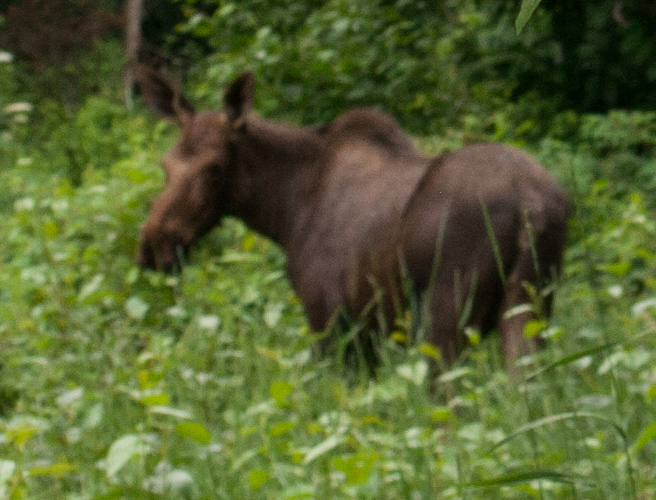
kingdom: Animalia
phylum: Chordata
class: Mammalia
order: Artiodactyla
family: Cervidae
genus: Alces
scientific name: Alces alces
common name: Moose
